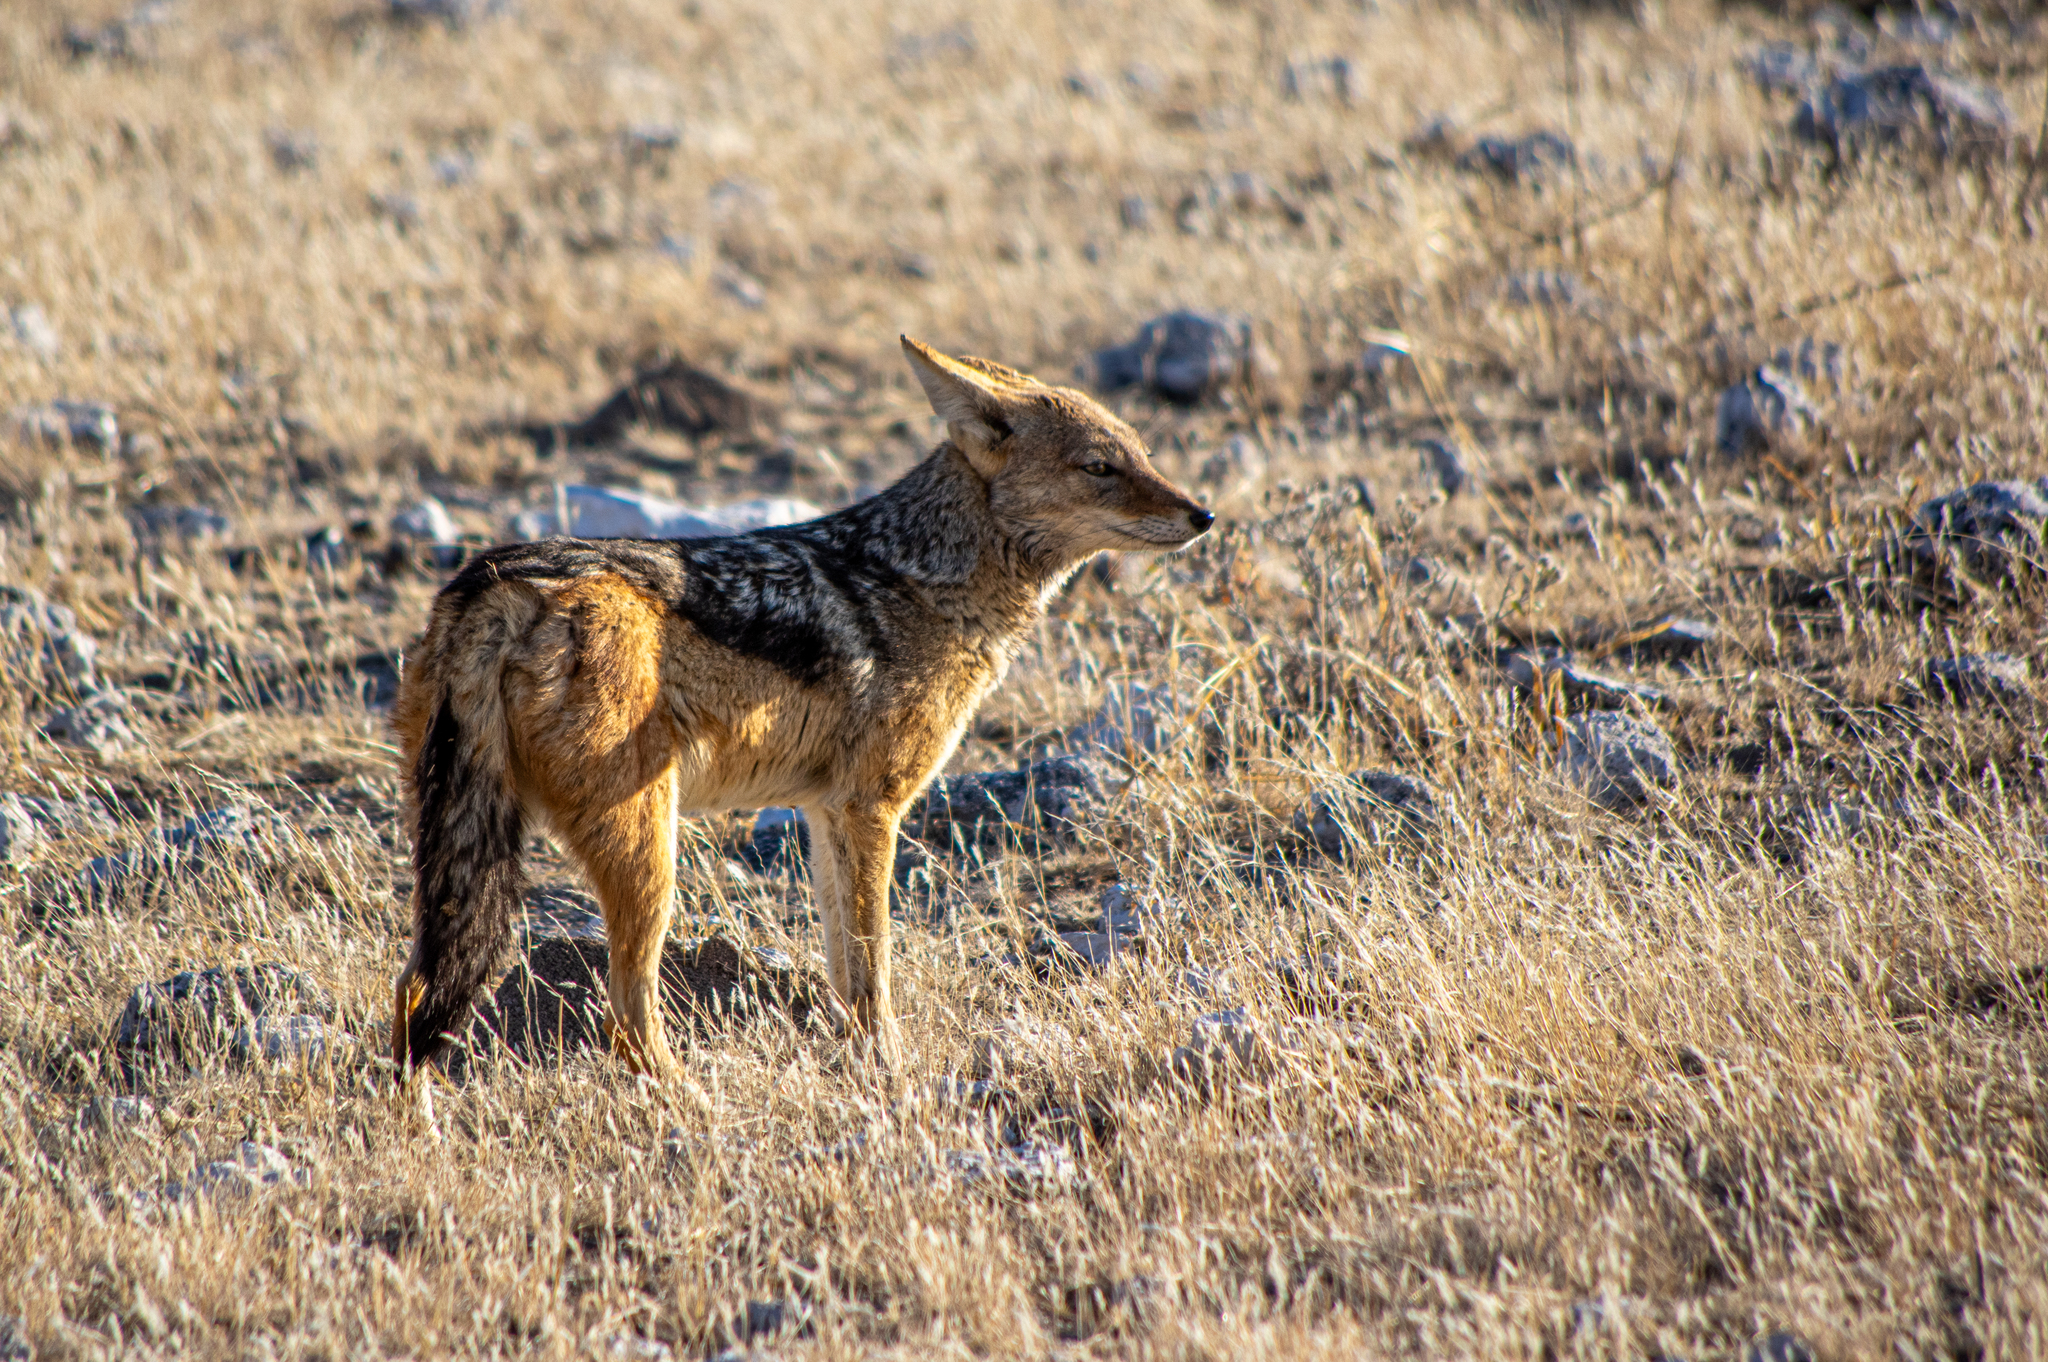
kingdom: Animalia
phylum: Chordata
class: Mammalia
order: Carnivora
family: Canidae
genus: Lupulella
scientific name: Lupulella
